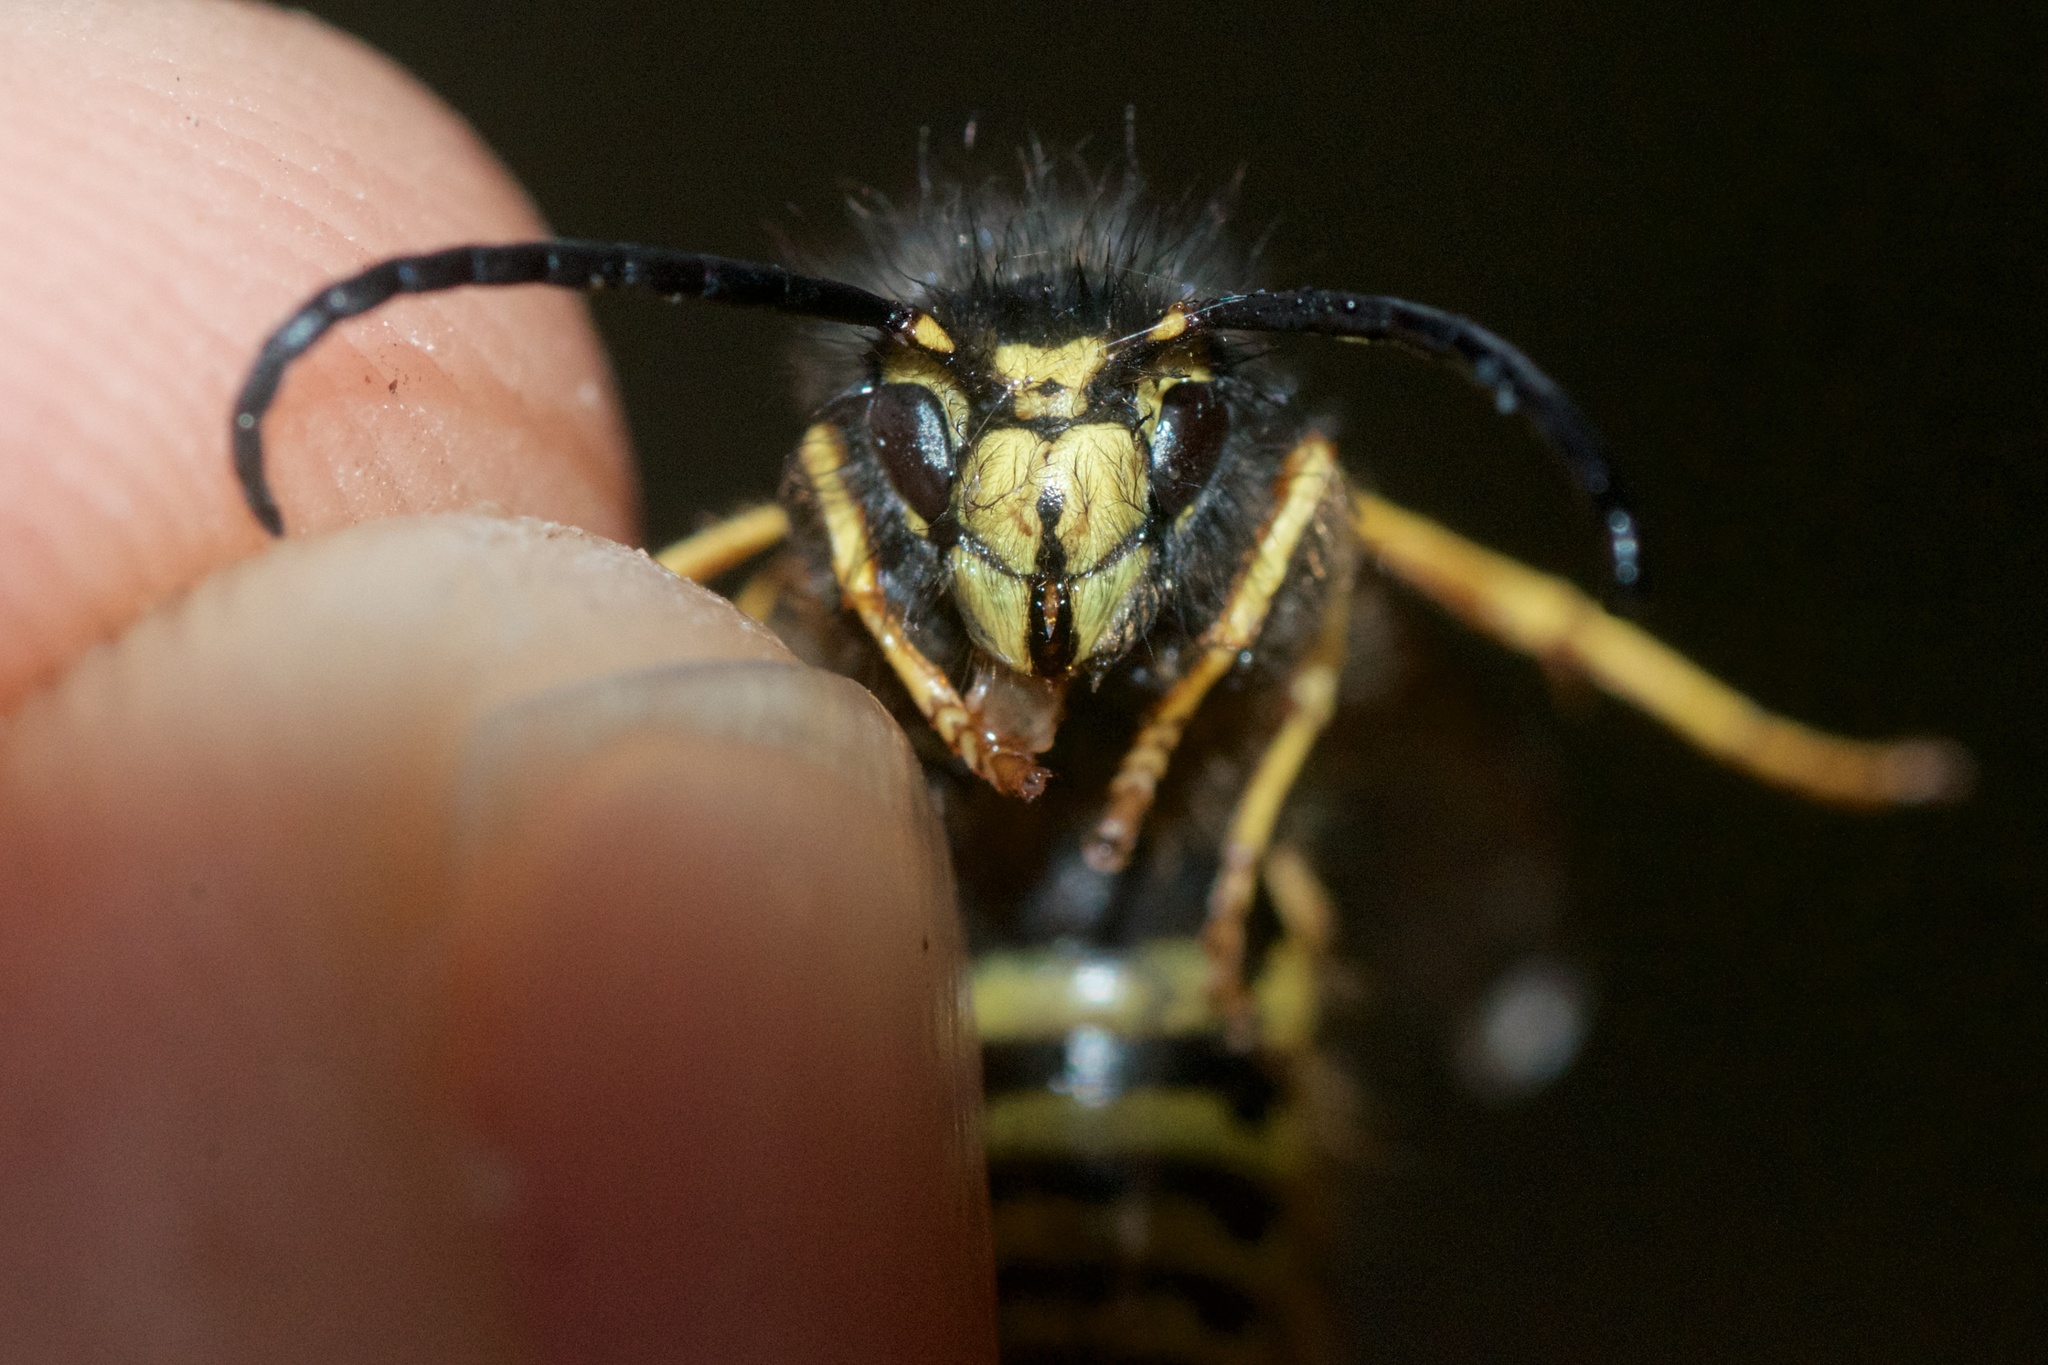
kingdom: Animalia
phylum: Arthropoda
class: Insecta
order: Hymenoptera
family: Vespidae
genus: Vespula
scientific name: Vespula vulgaris
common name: Common wasp
